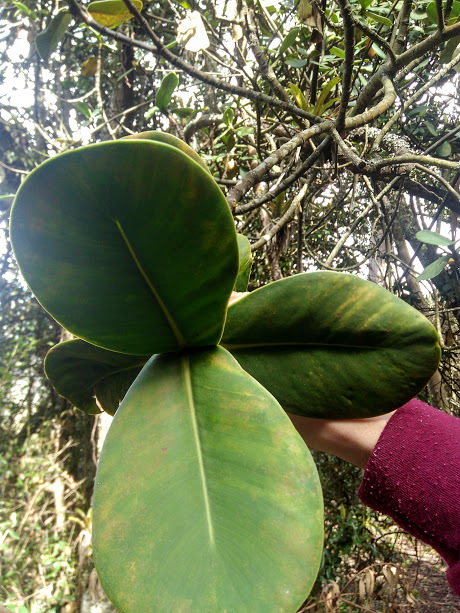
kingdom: Plantae
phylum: Tracheophyta
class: Magnoliopsida
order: Malpighiales
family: Clusiaceae
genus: Clusia
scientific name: Clusia multiflora
